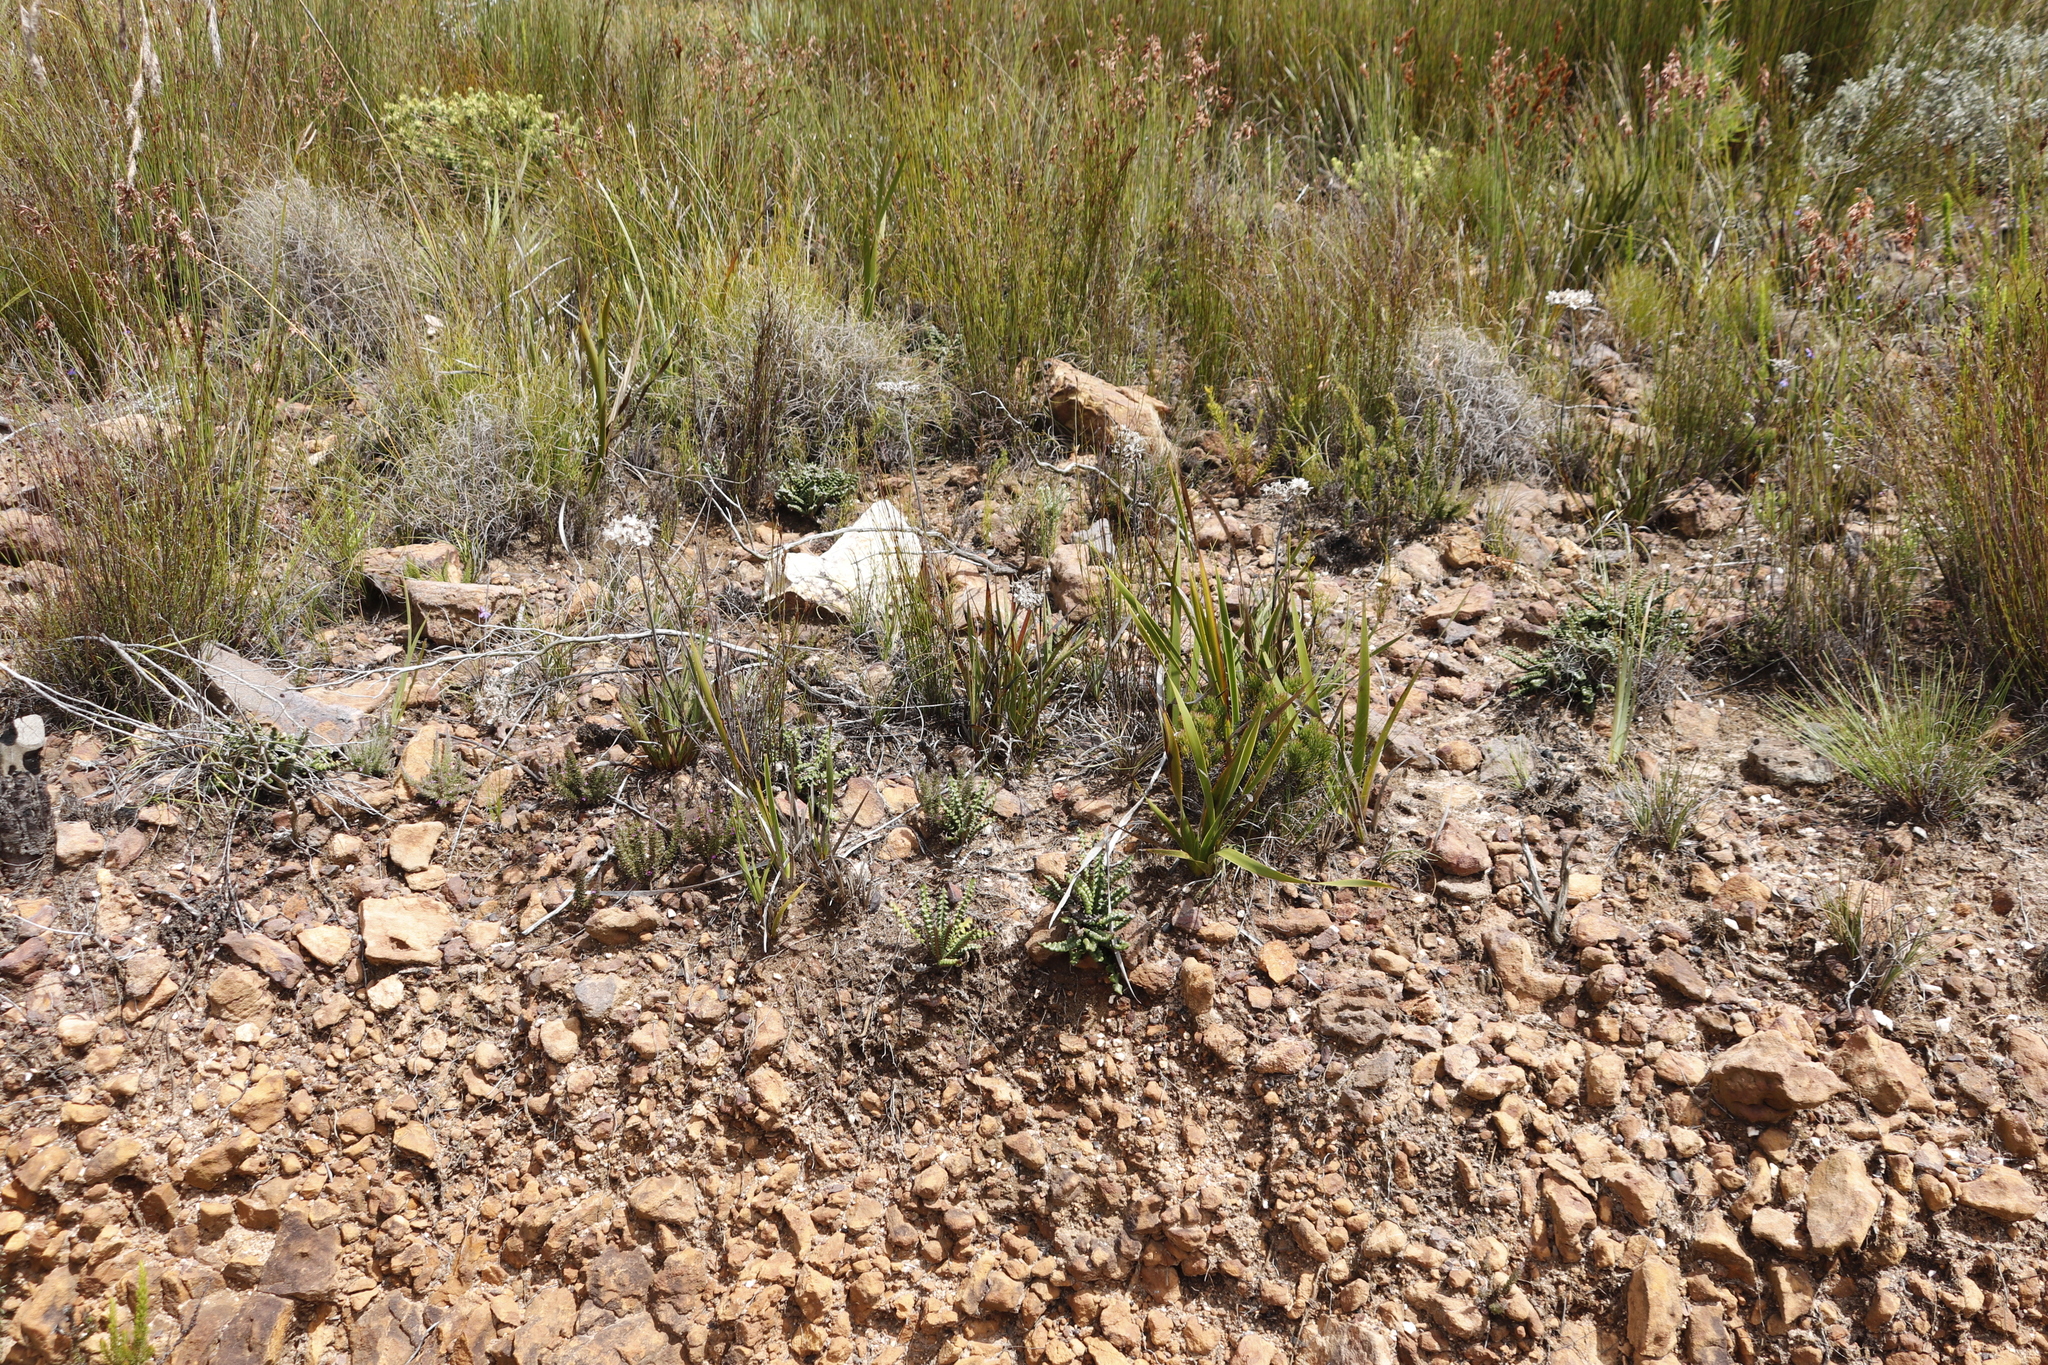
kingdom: Plantae
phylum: Tracheophyta
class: Magnoliopsida
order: Asterales
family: Asteraceae
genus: Gerbera
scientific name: Gerbera linnaei
